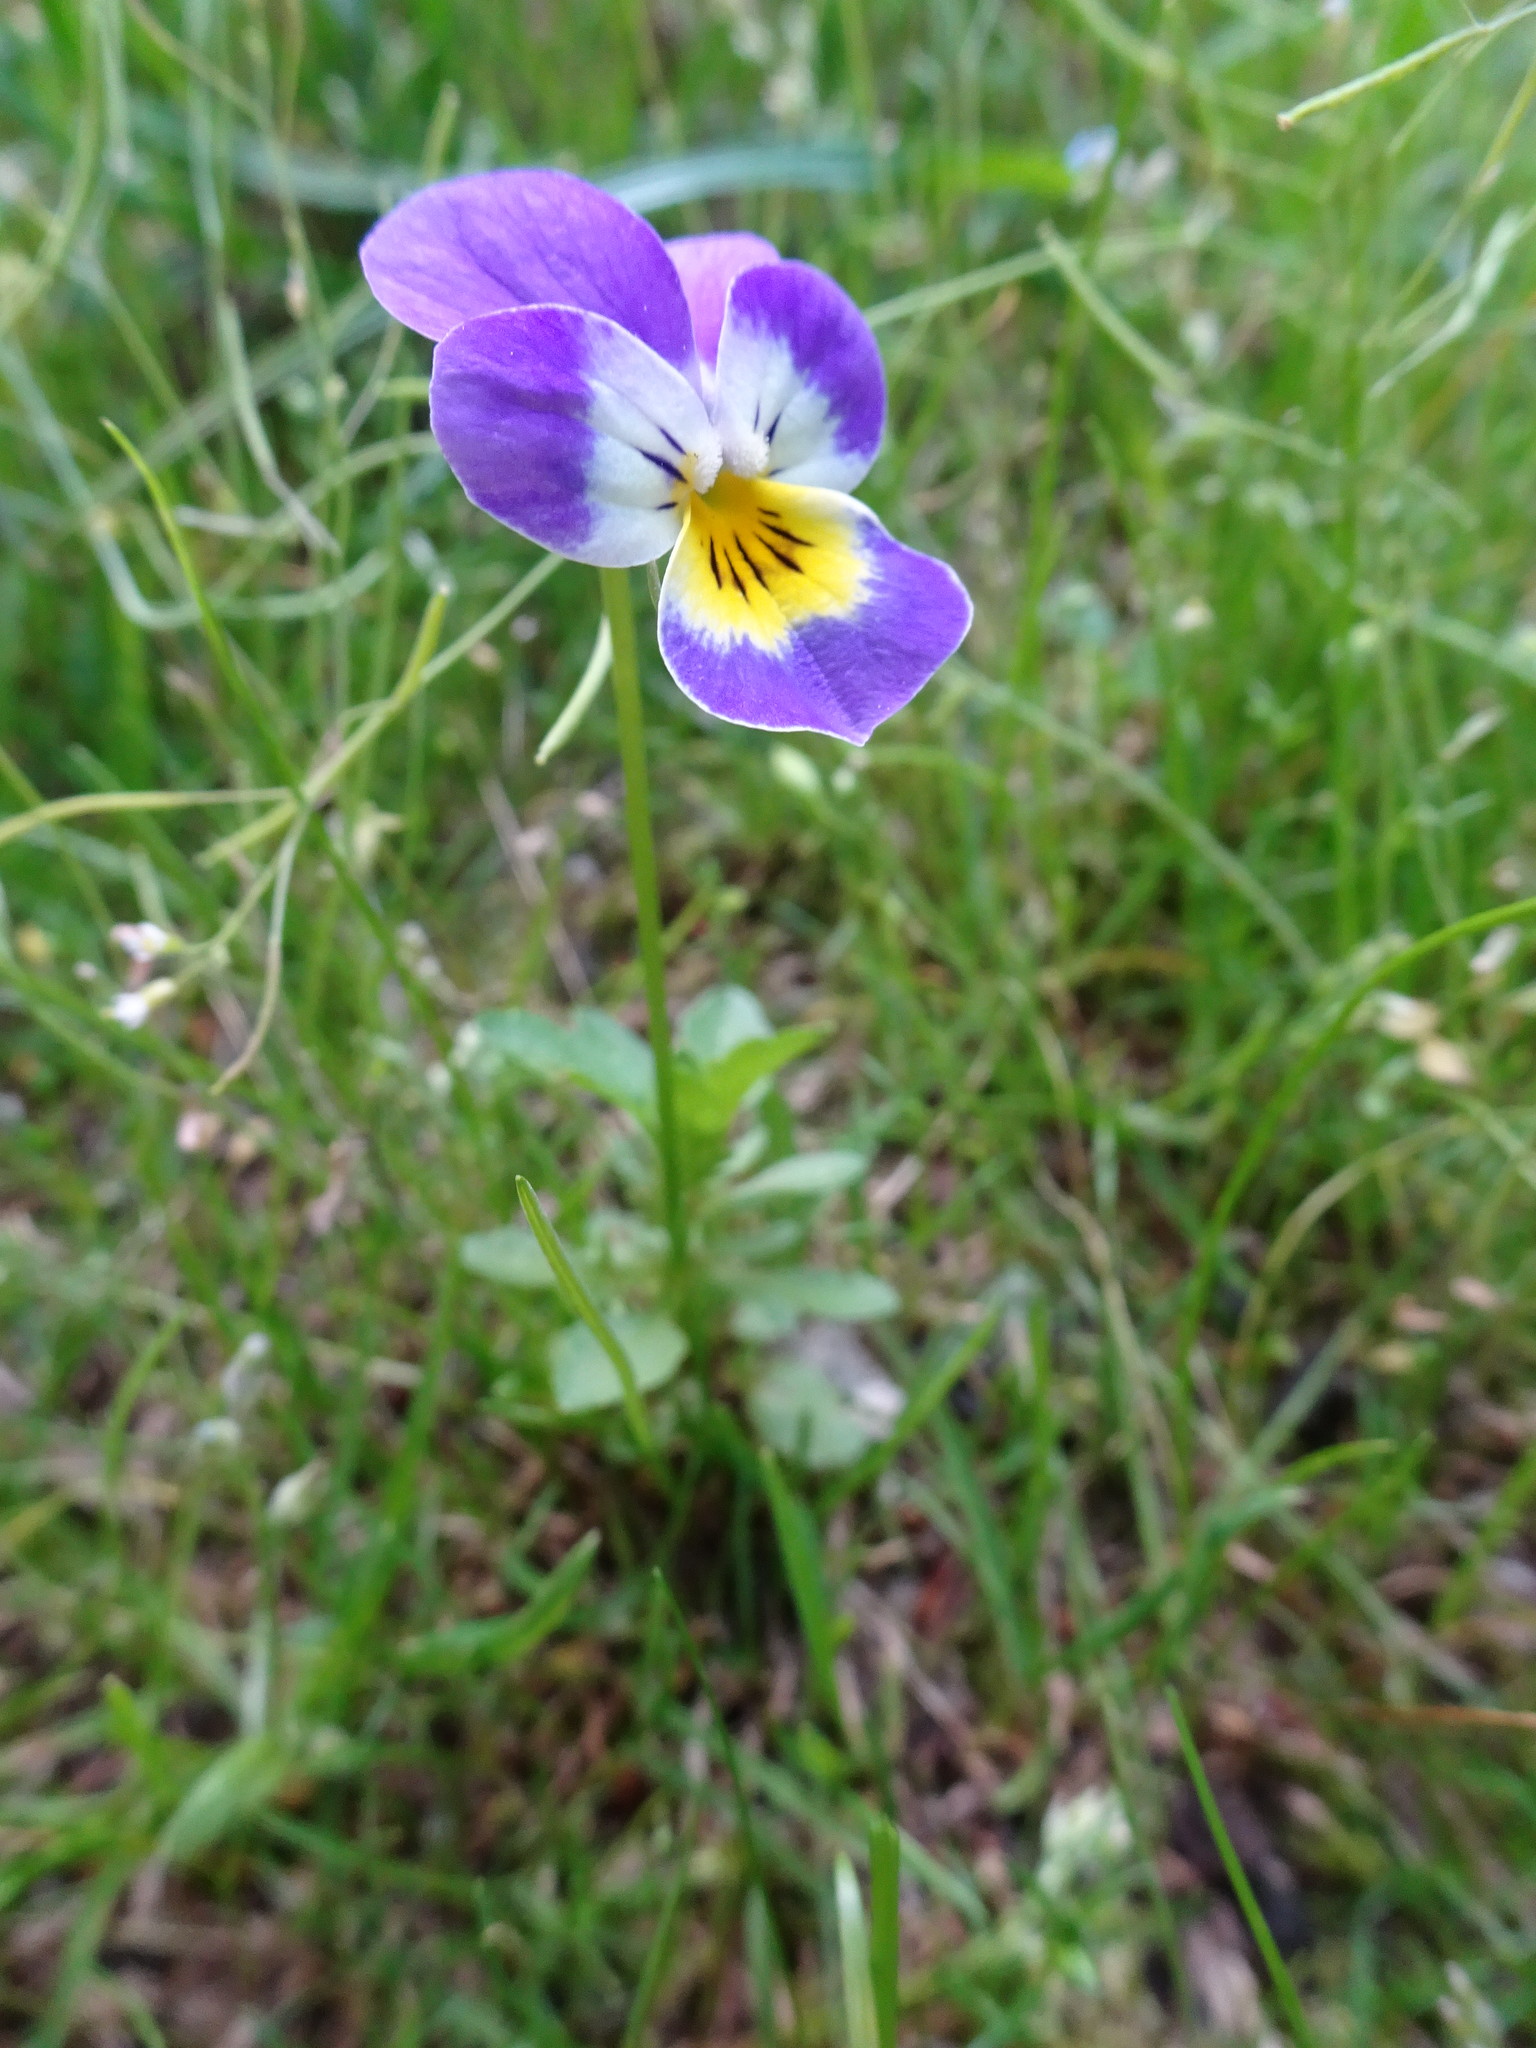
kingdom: Plantae
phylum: Tracheophyta
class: Magnoliopsida
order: Malpighiales
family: Violaceae
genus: Viola
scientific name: Viola wittrockiana
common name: Garden pansy
